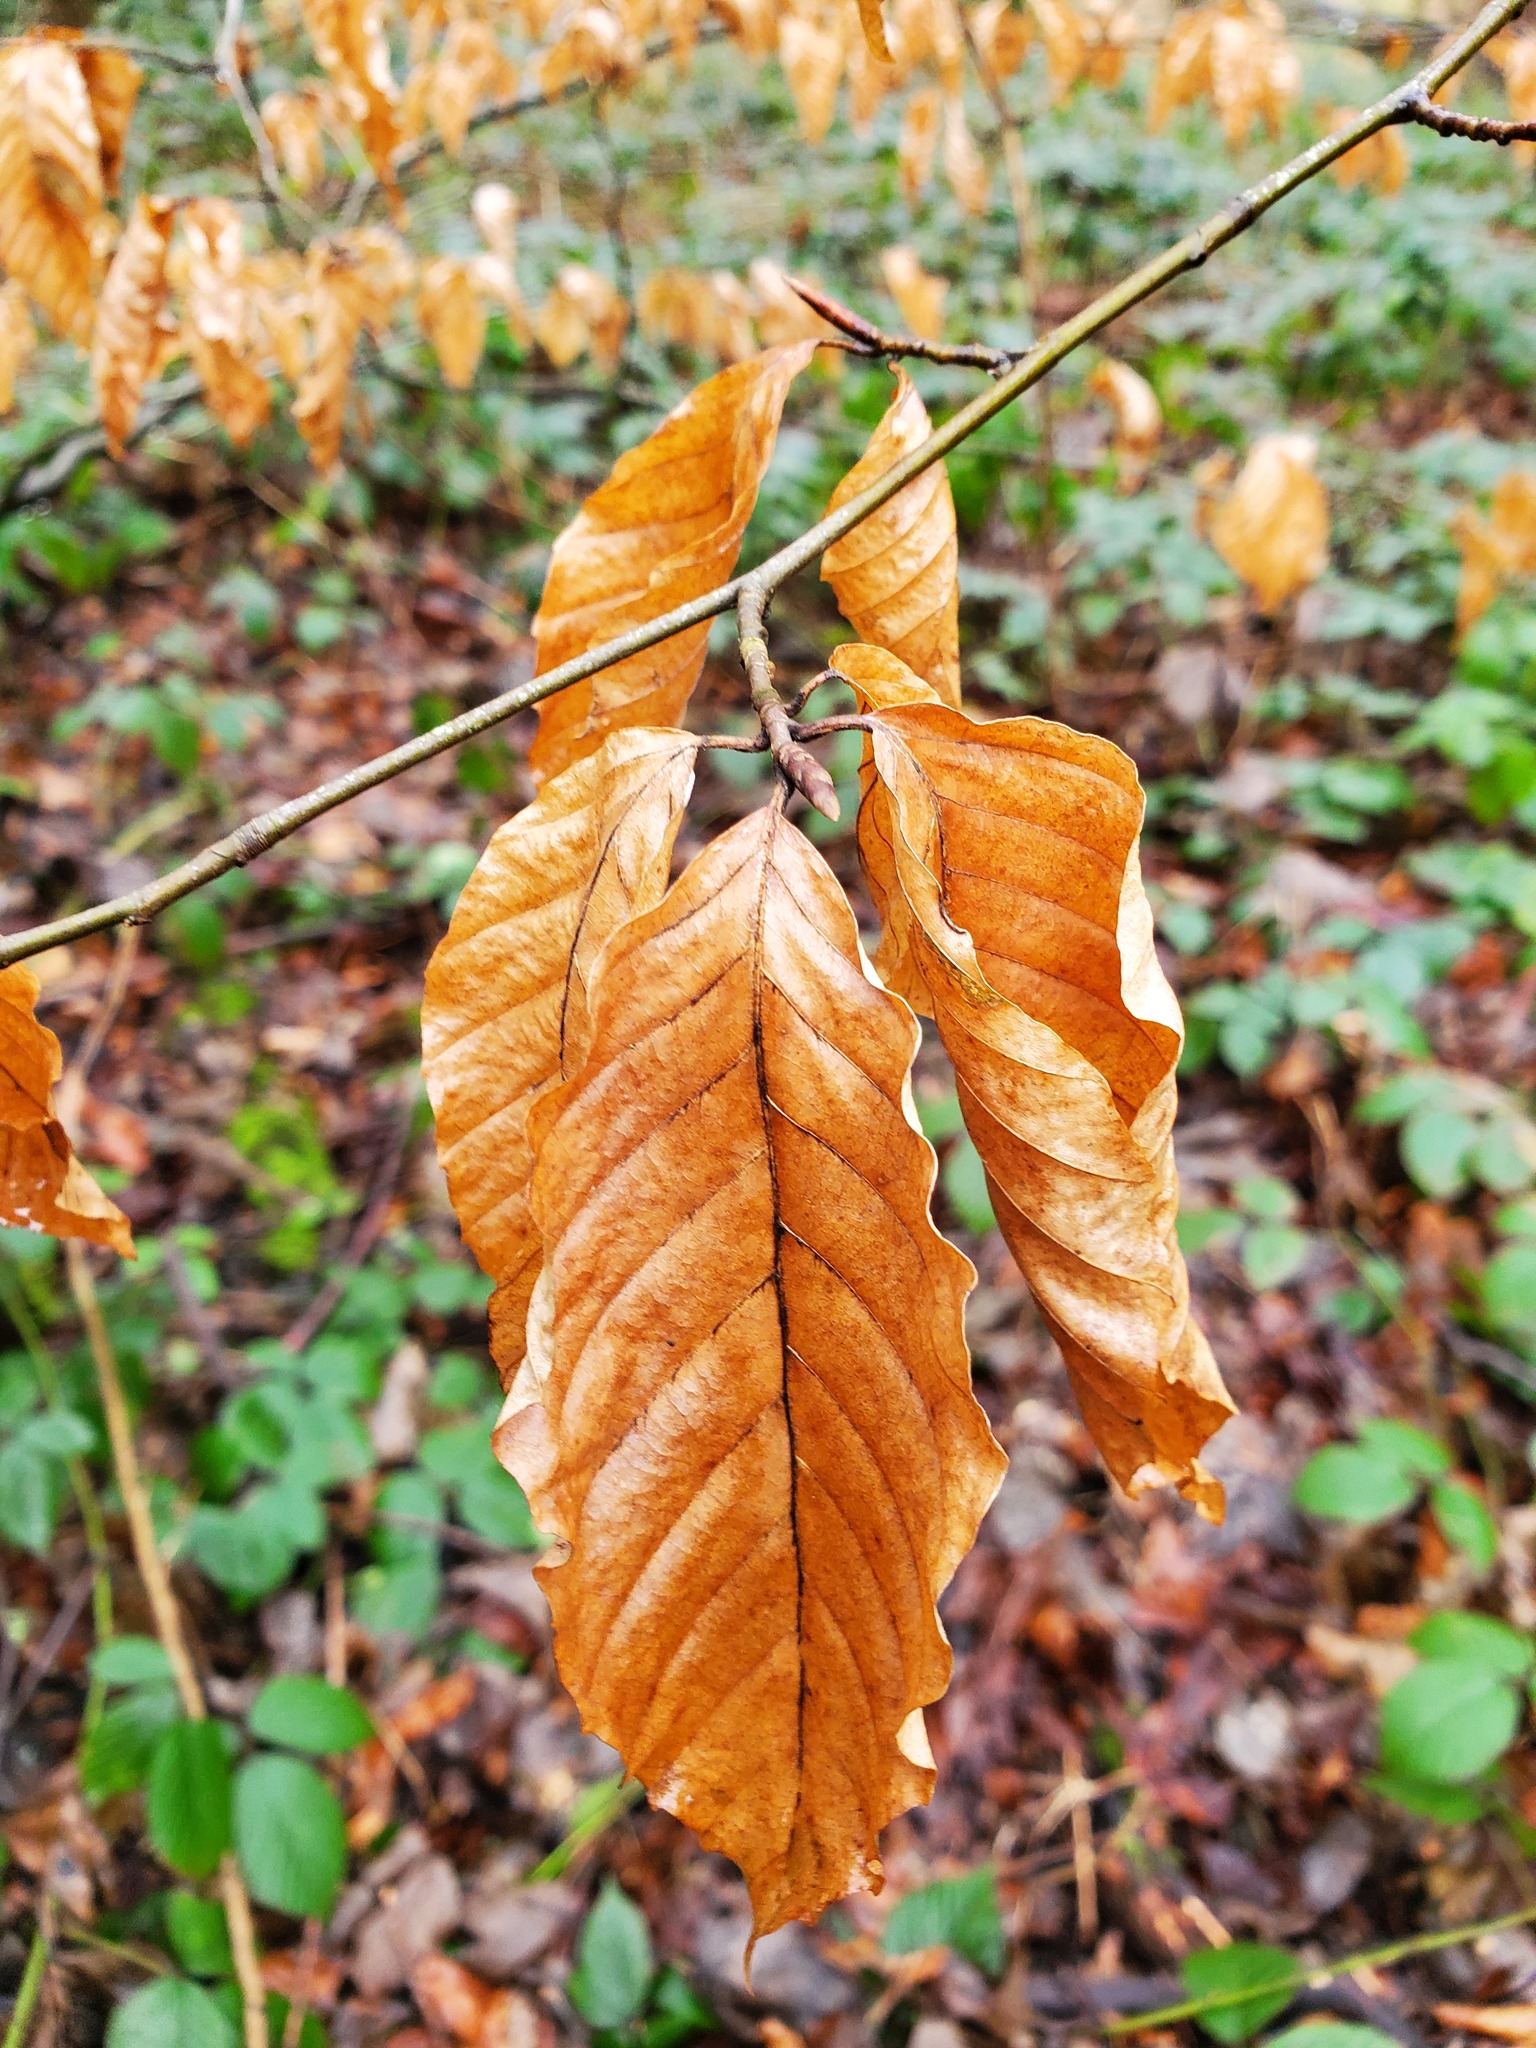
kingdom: Plantae
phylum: Tracheophyta
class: Magnoliopsida
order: Fagales
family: Fagaceae
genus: Fagus
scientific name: Fagus sylvatica
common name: Beech
